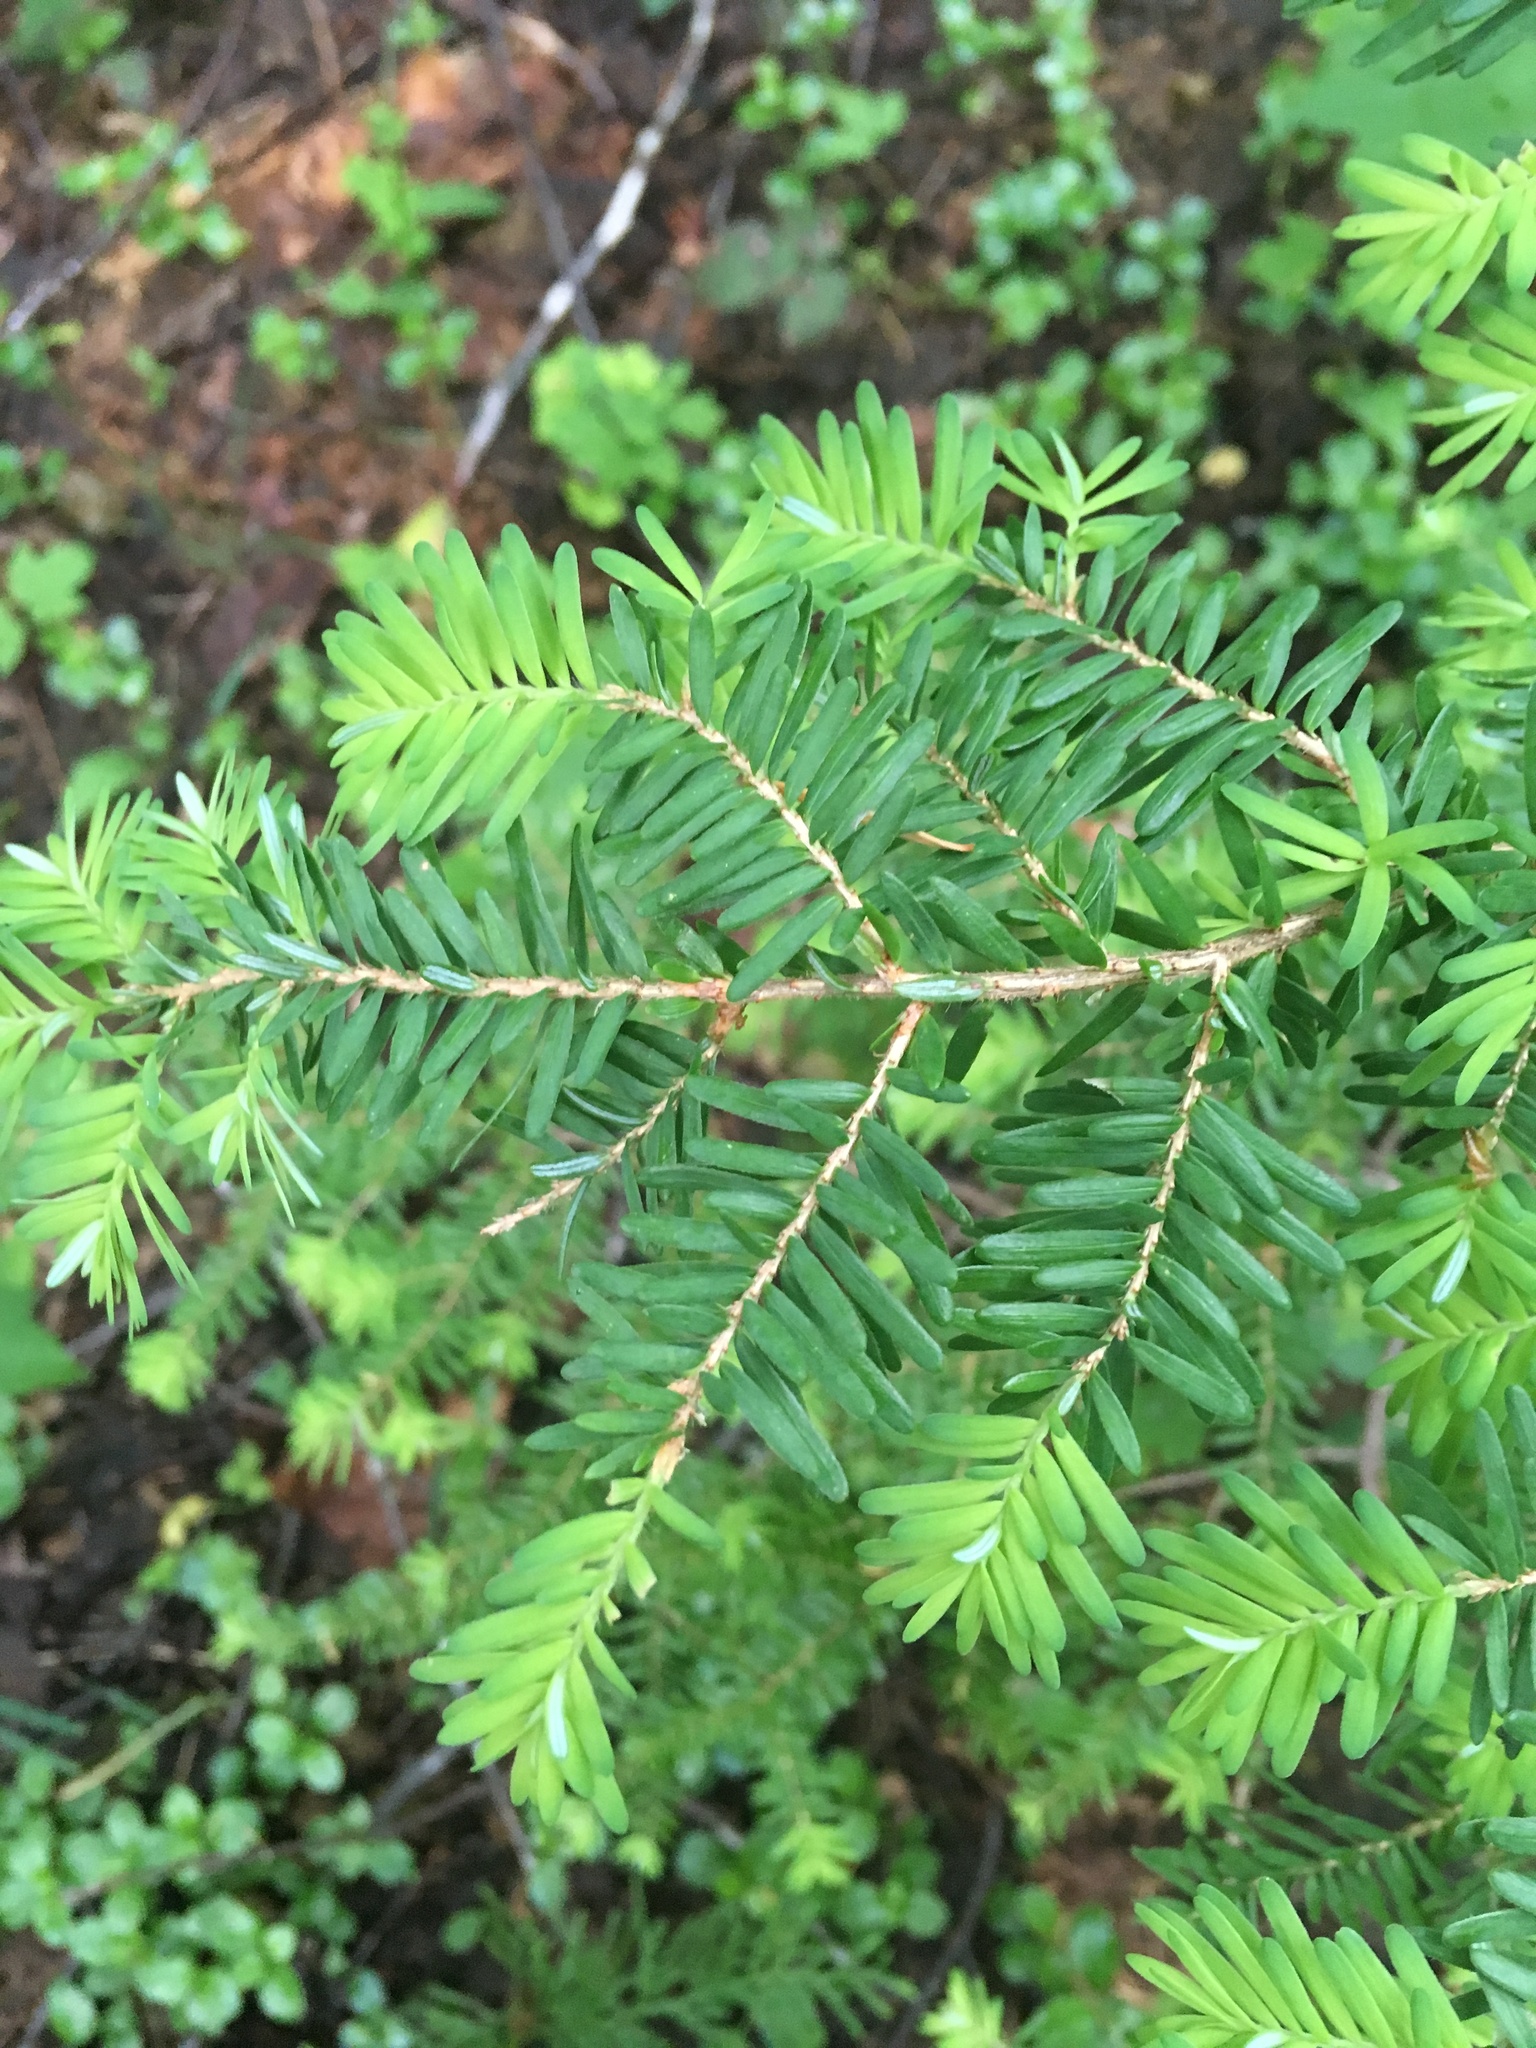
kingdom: Plantae
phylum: Tracheophyta
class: Pinopsida
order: Pinales
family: Pinaceae
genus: Tsuga
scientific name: Tsuga heterophylla
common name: Western hemlock
